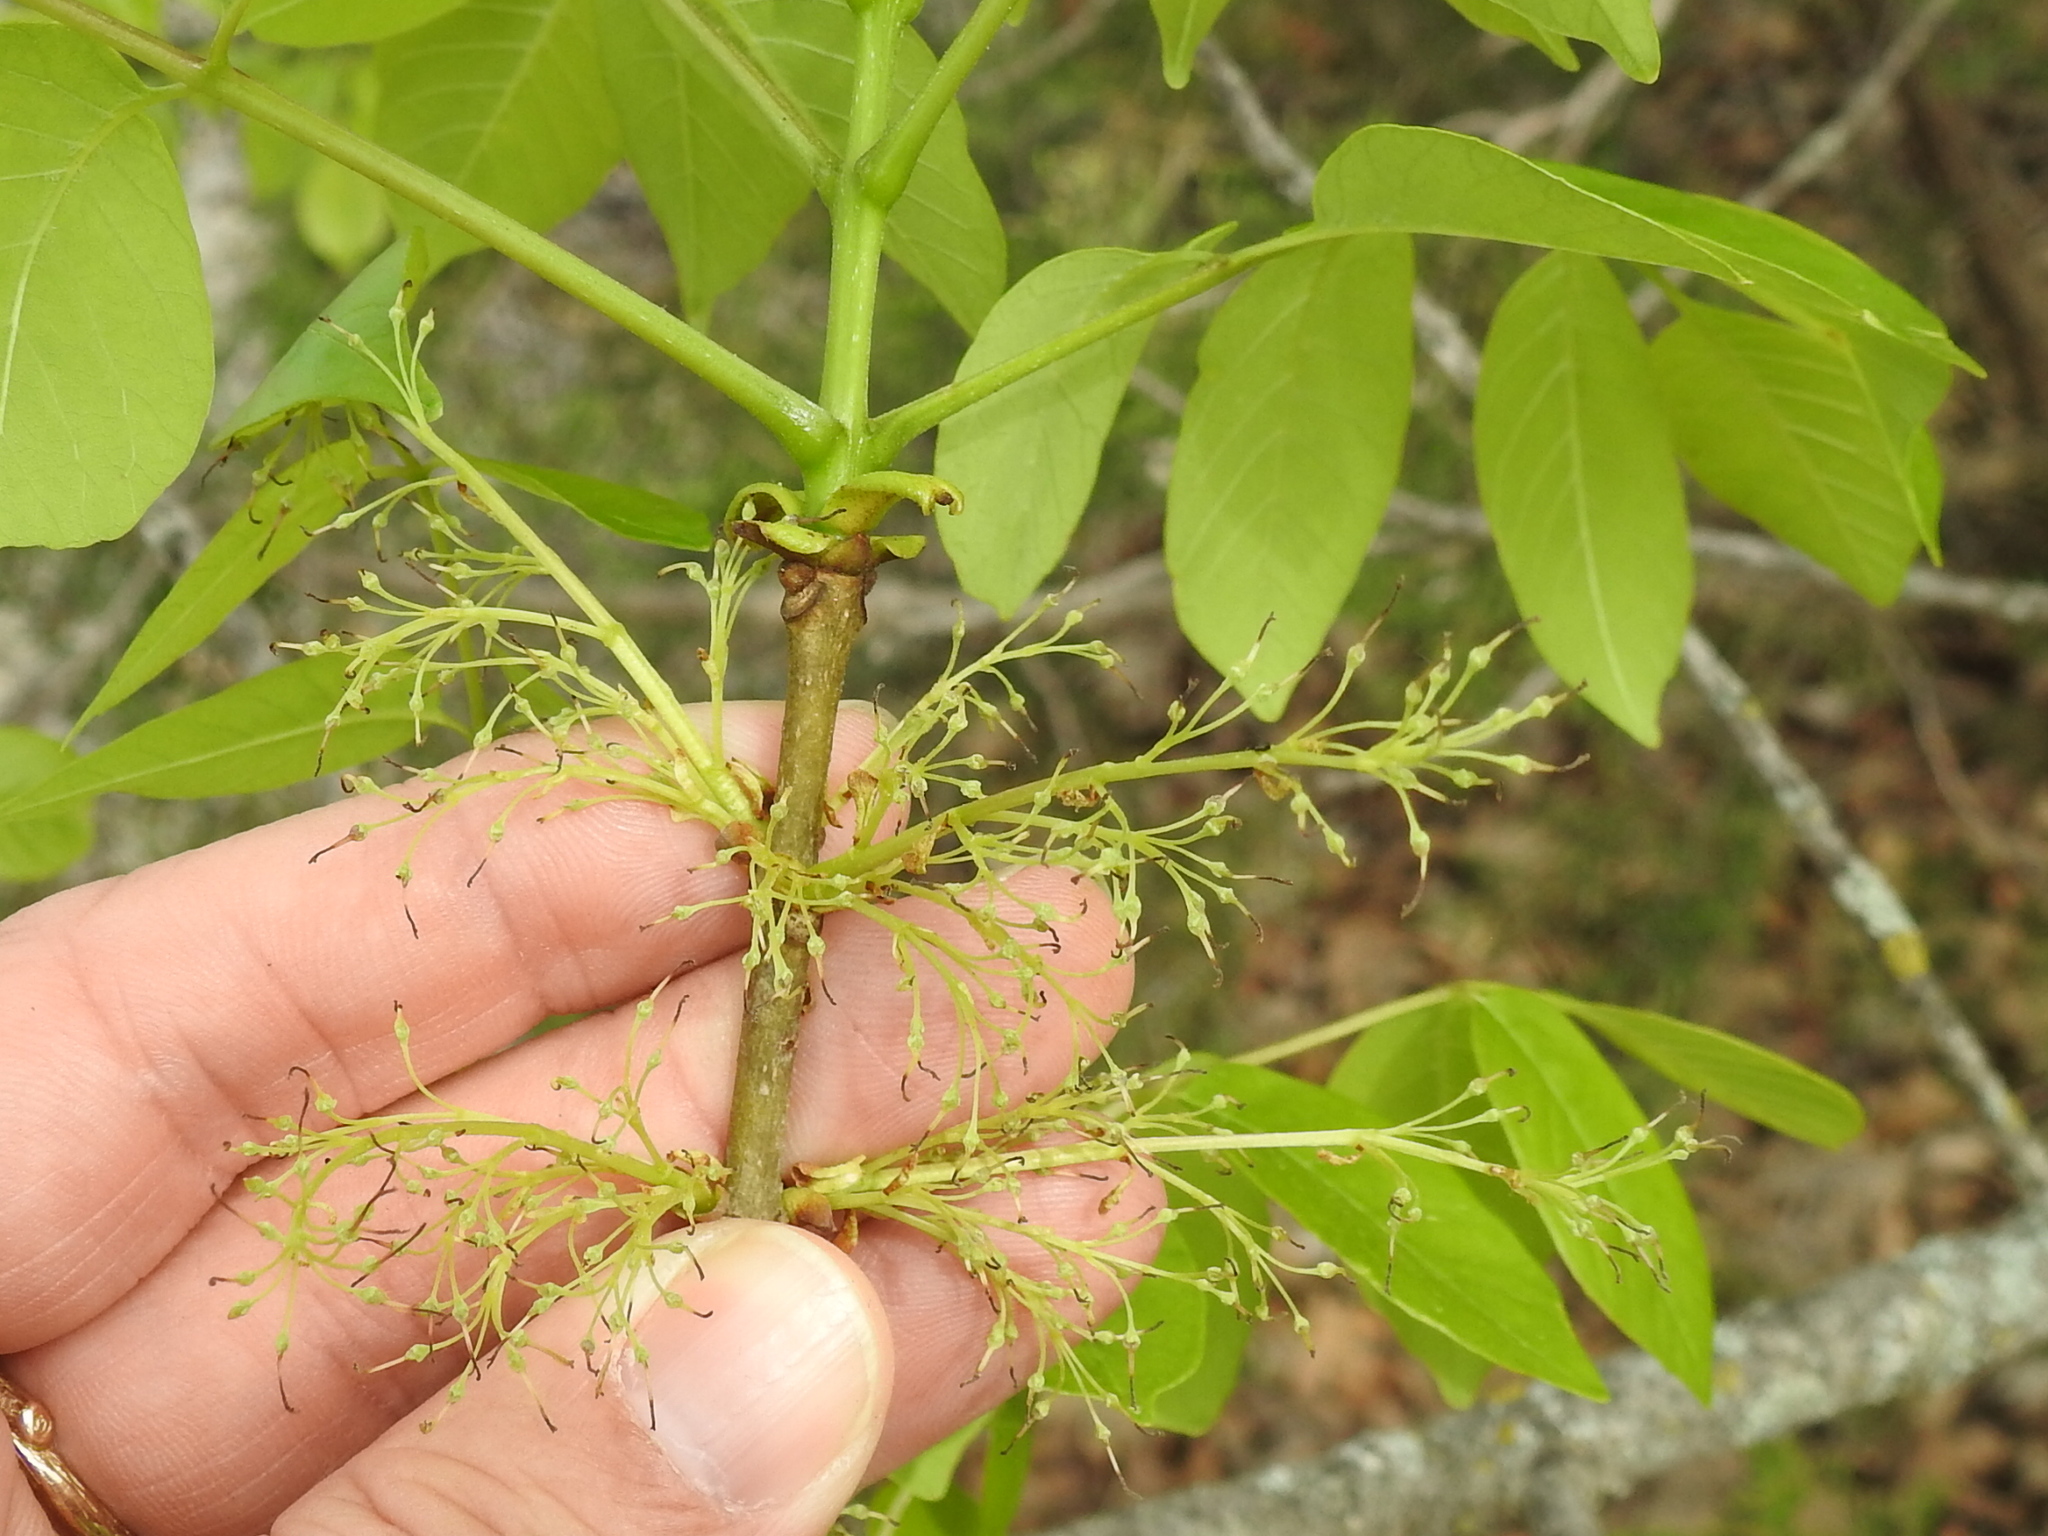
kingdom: Plantae
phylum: Tracheophyta
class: Magnoliopsida
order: Lamiales
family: Oleaceae
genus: Fraxinus
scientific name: Fraxinus albicans
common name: Texas ash
